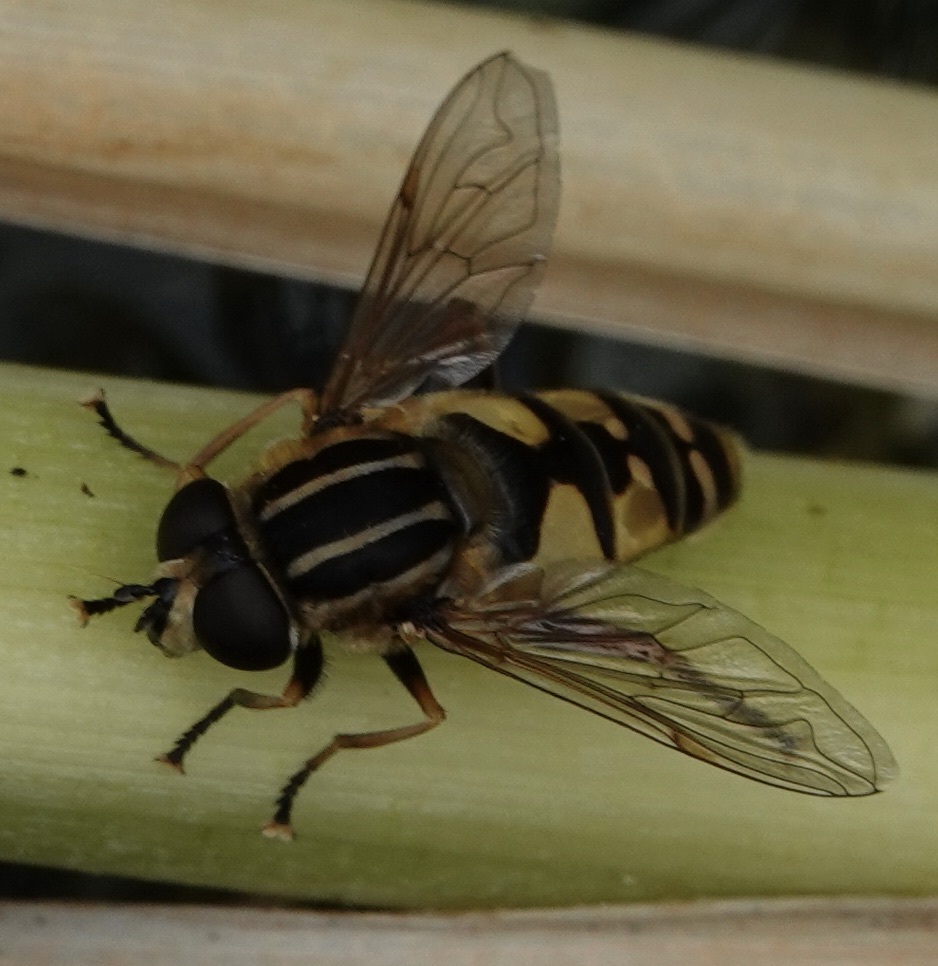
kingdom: Animalia
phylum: Arthropoda
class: Insecta
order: Diptera
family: Syrphidae
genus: Helophilus
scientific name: Helophilus pendulus
